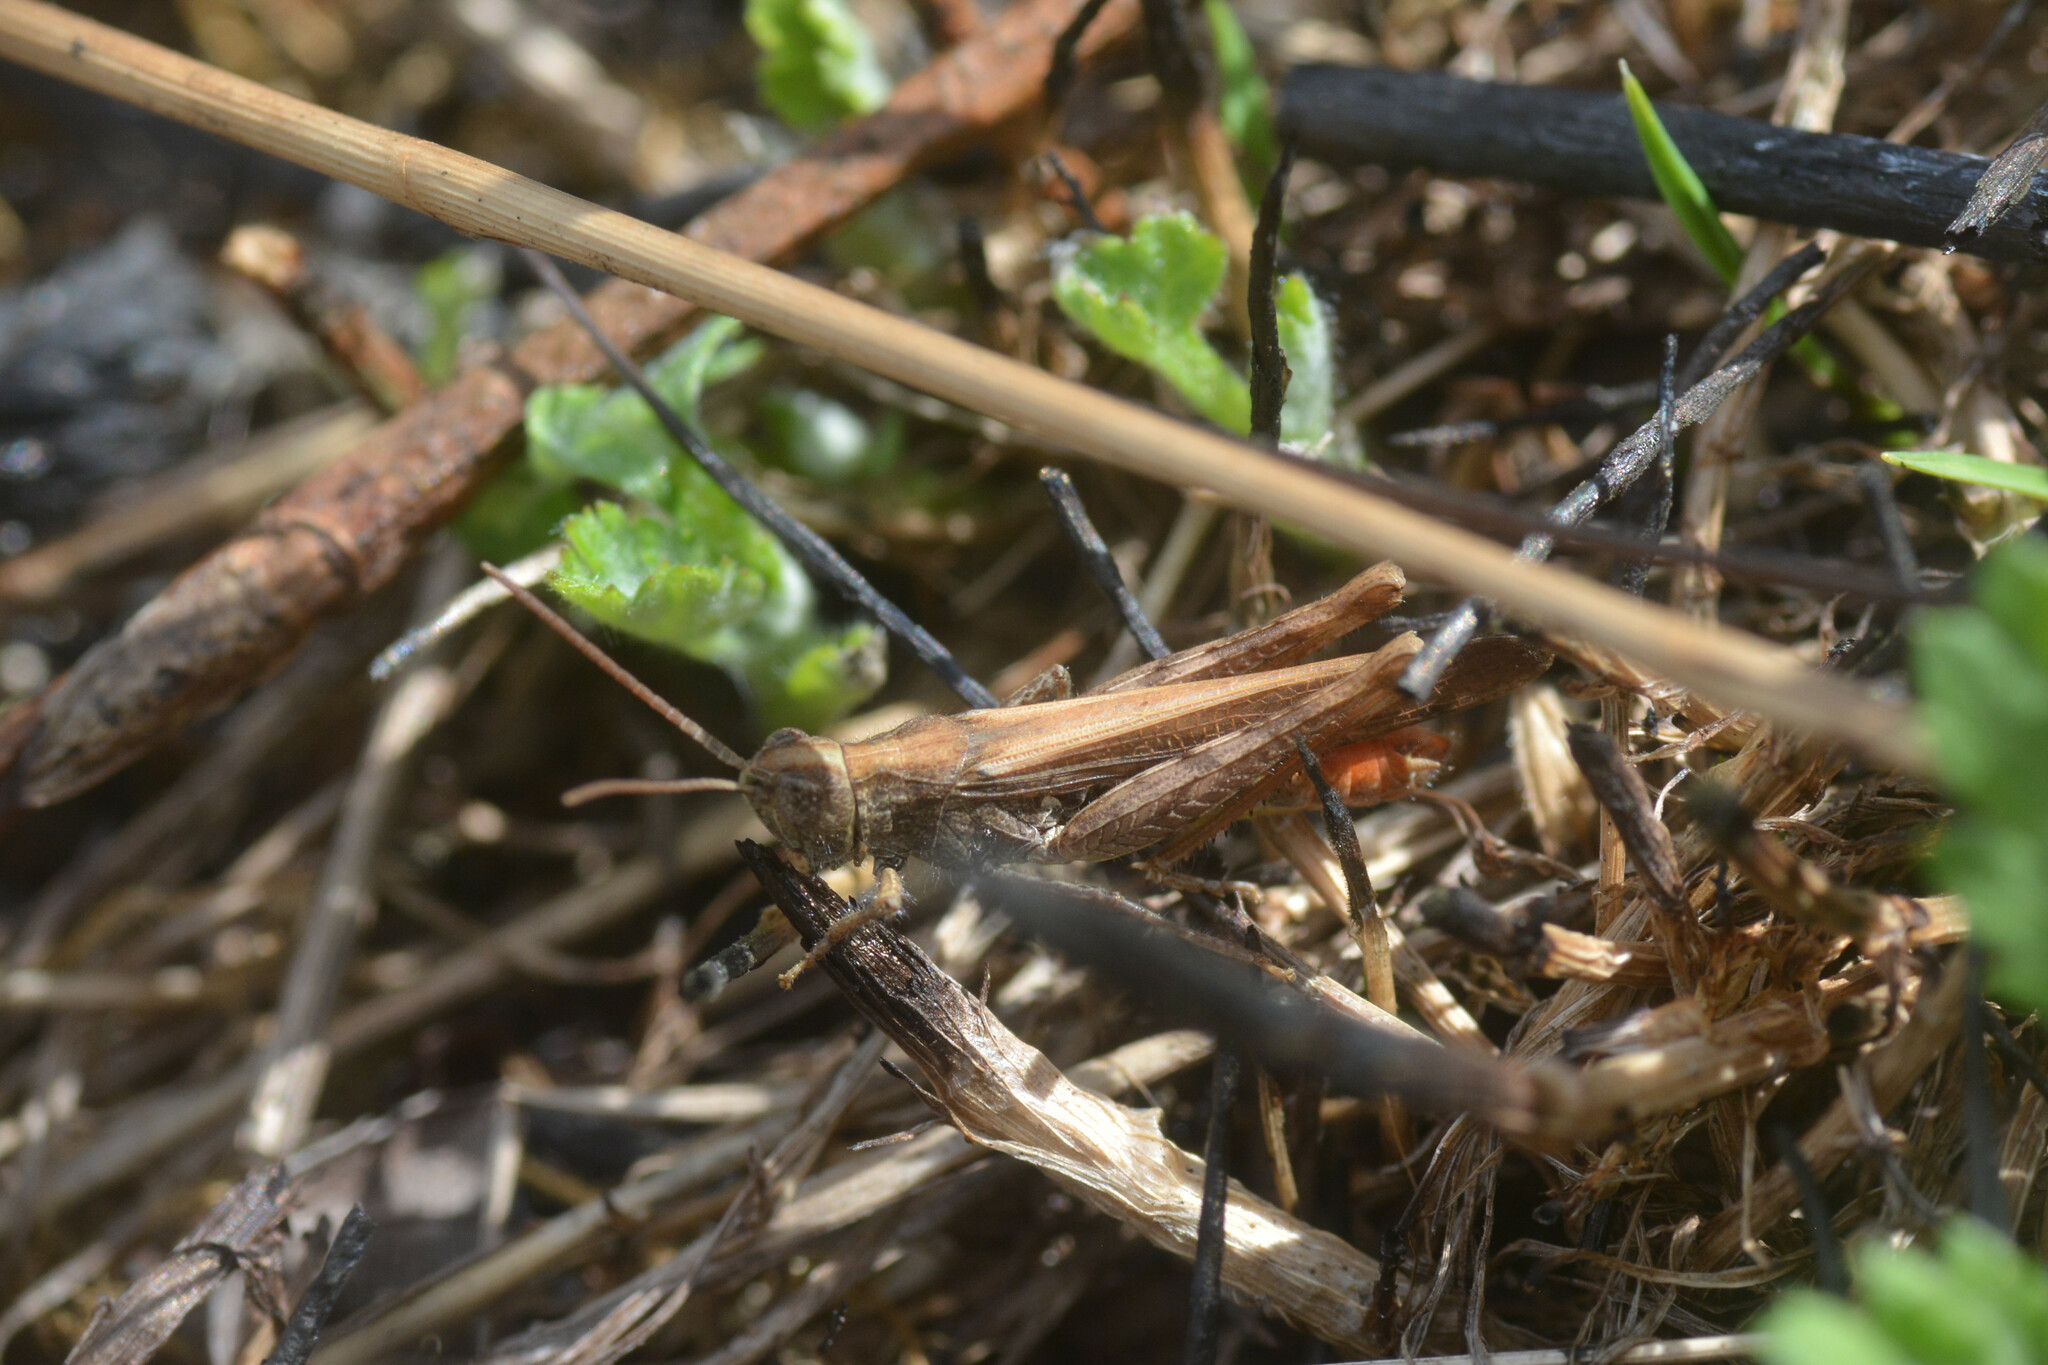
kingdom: Animalia
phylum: Arthropoda
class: Insecta
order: Orthoptera
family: Acrididae
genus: Chorthippus
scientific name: Chorthippus brunneus
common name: Field grasshopper
